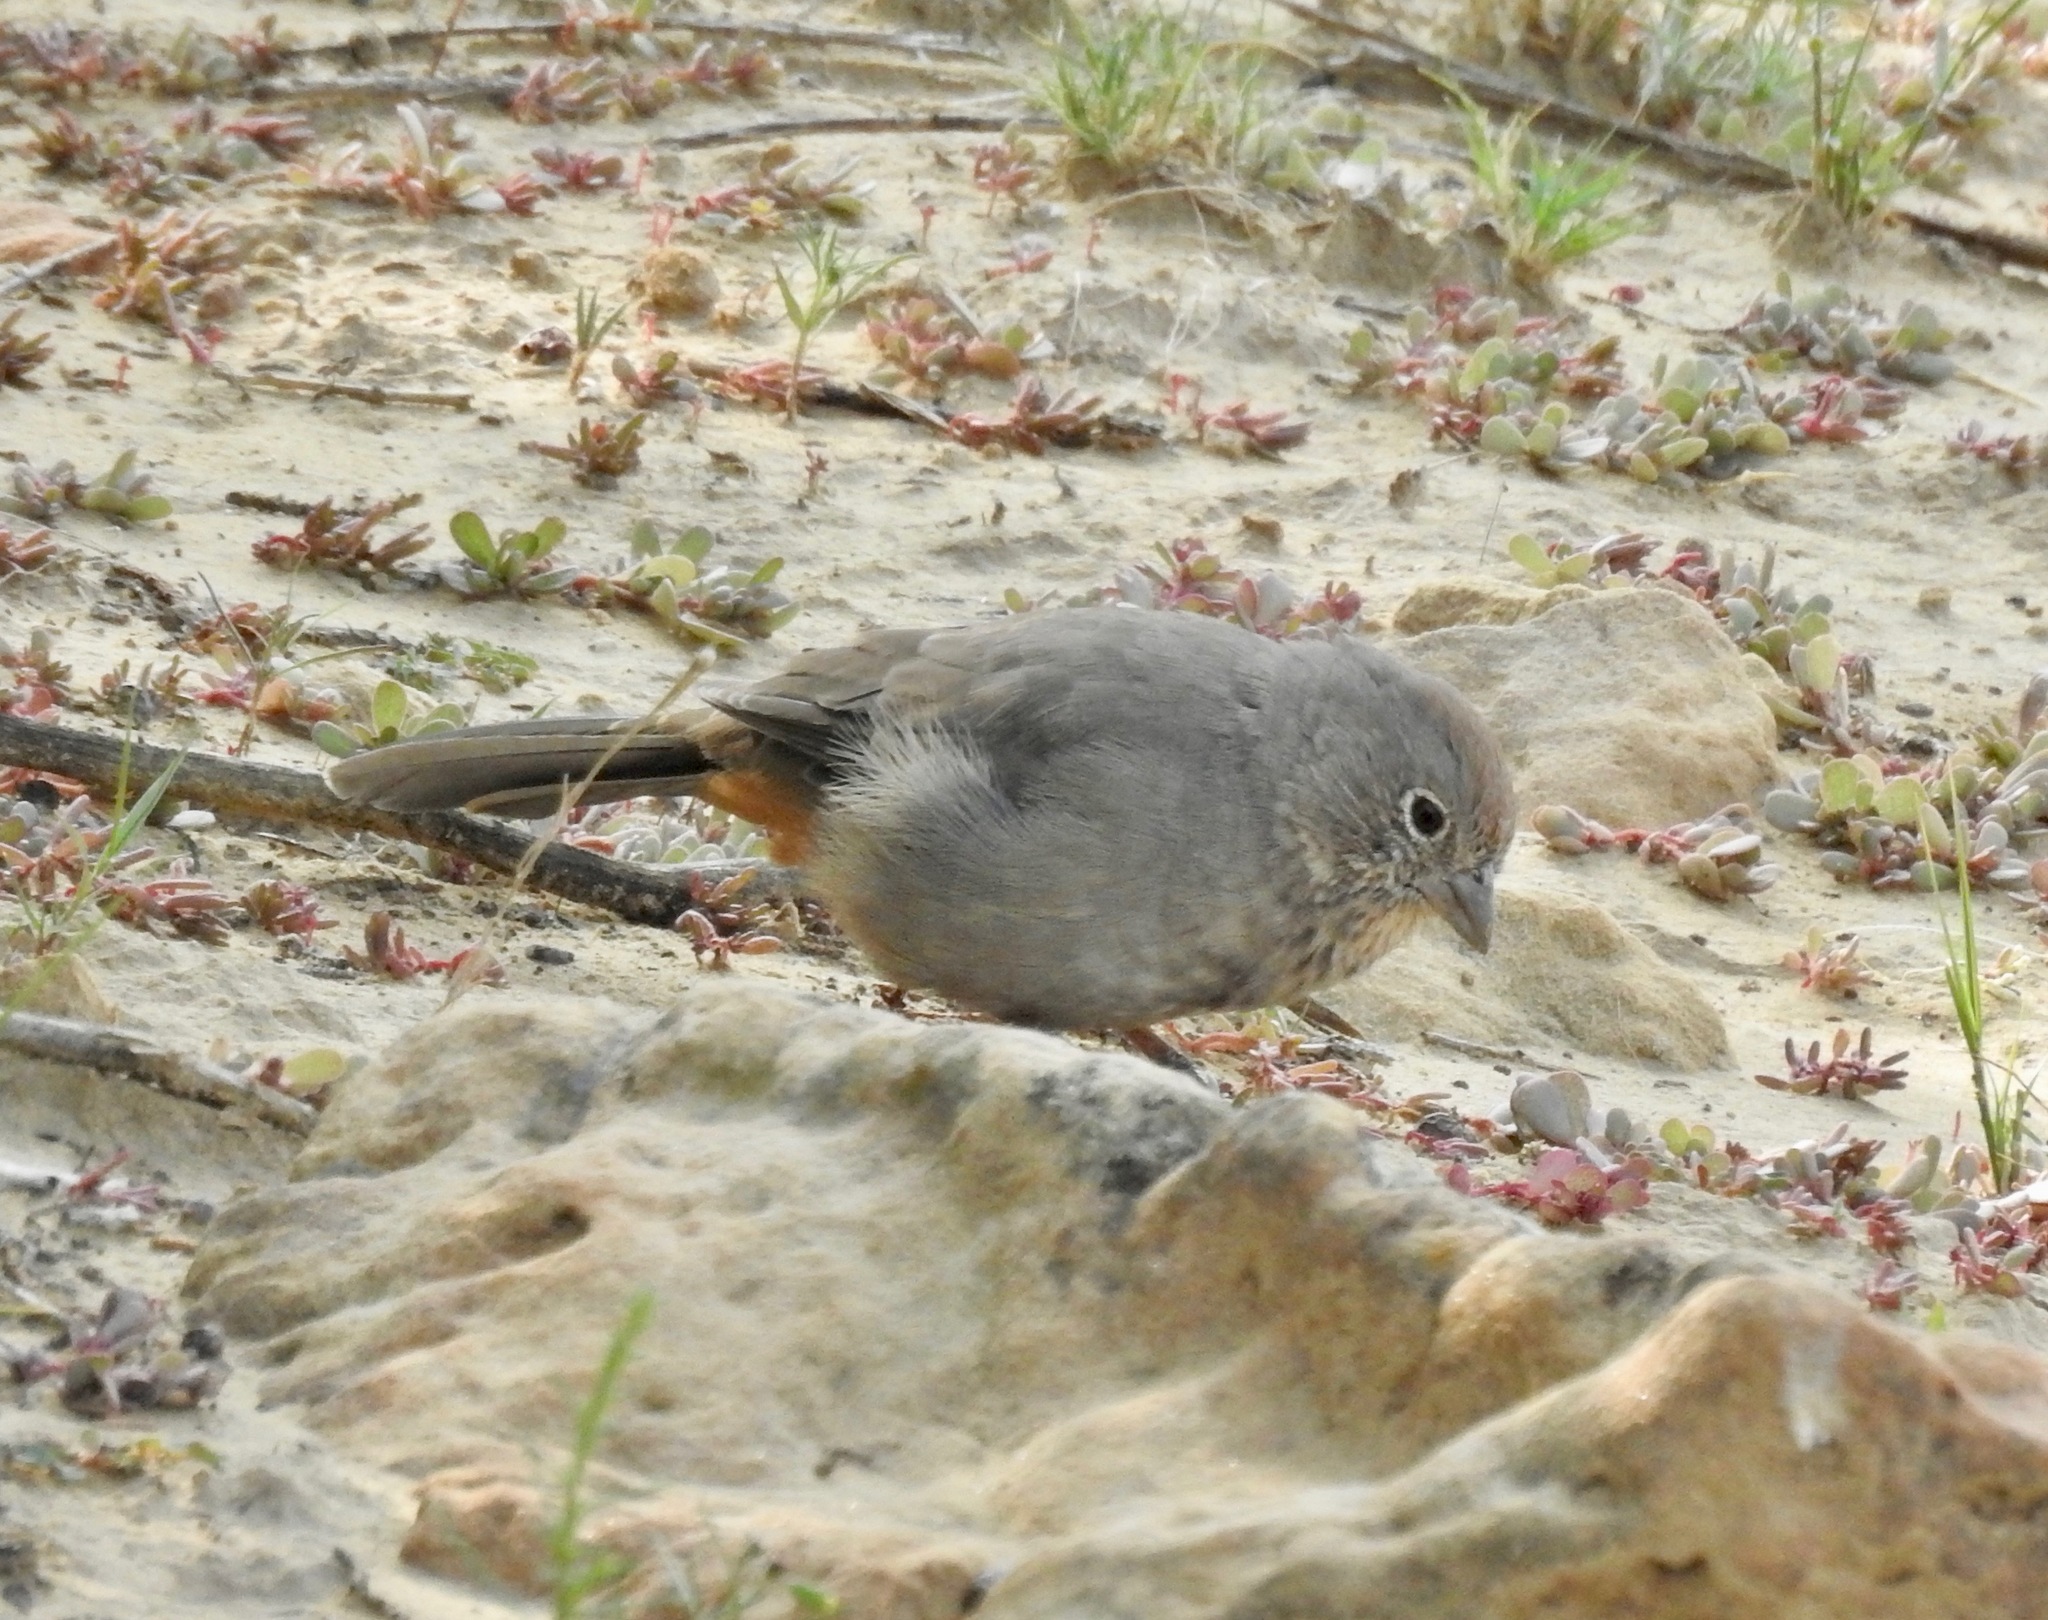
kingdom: Animalia
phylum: Chordata
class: Aves
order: Passeriformes
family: Passerellidae
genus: Melozone
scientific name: Melozone fusca
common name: Canyon towhee
